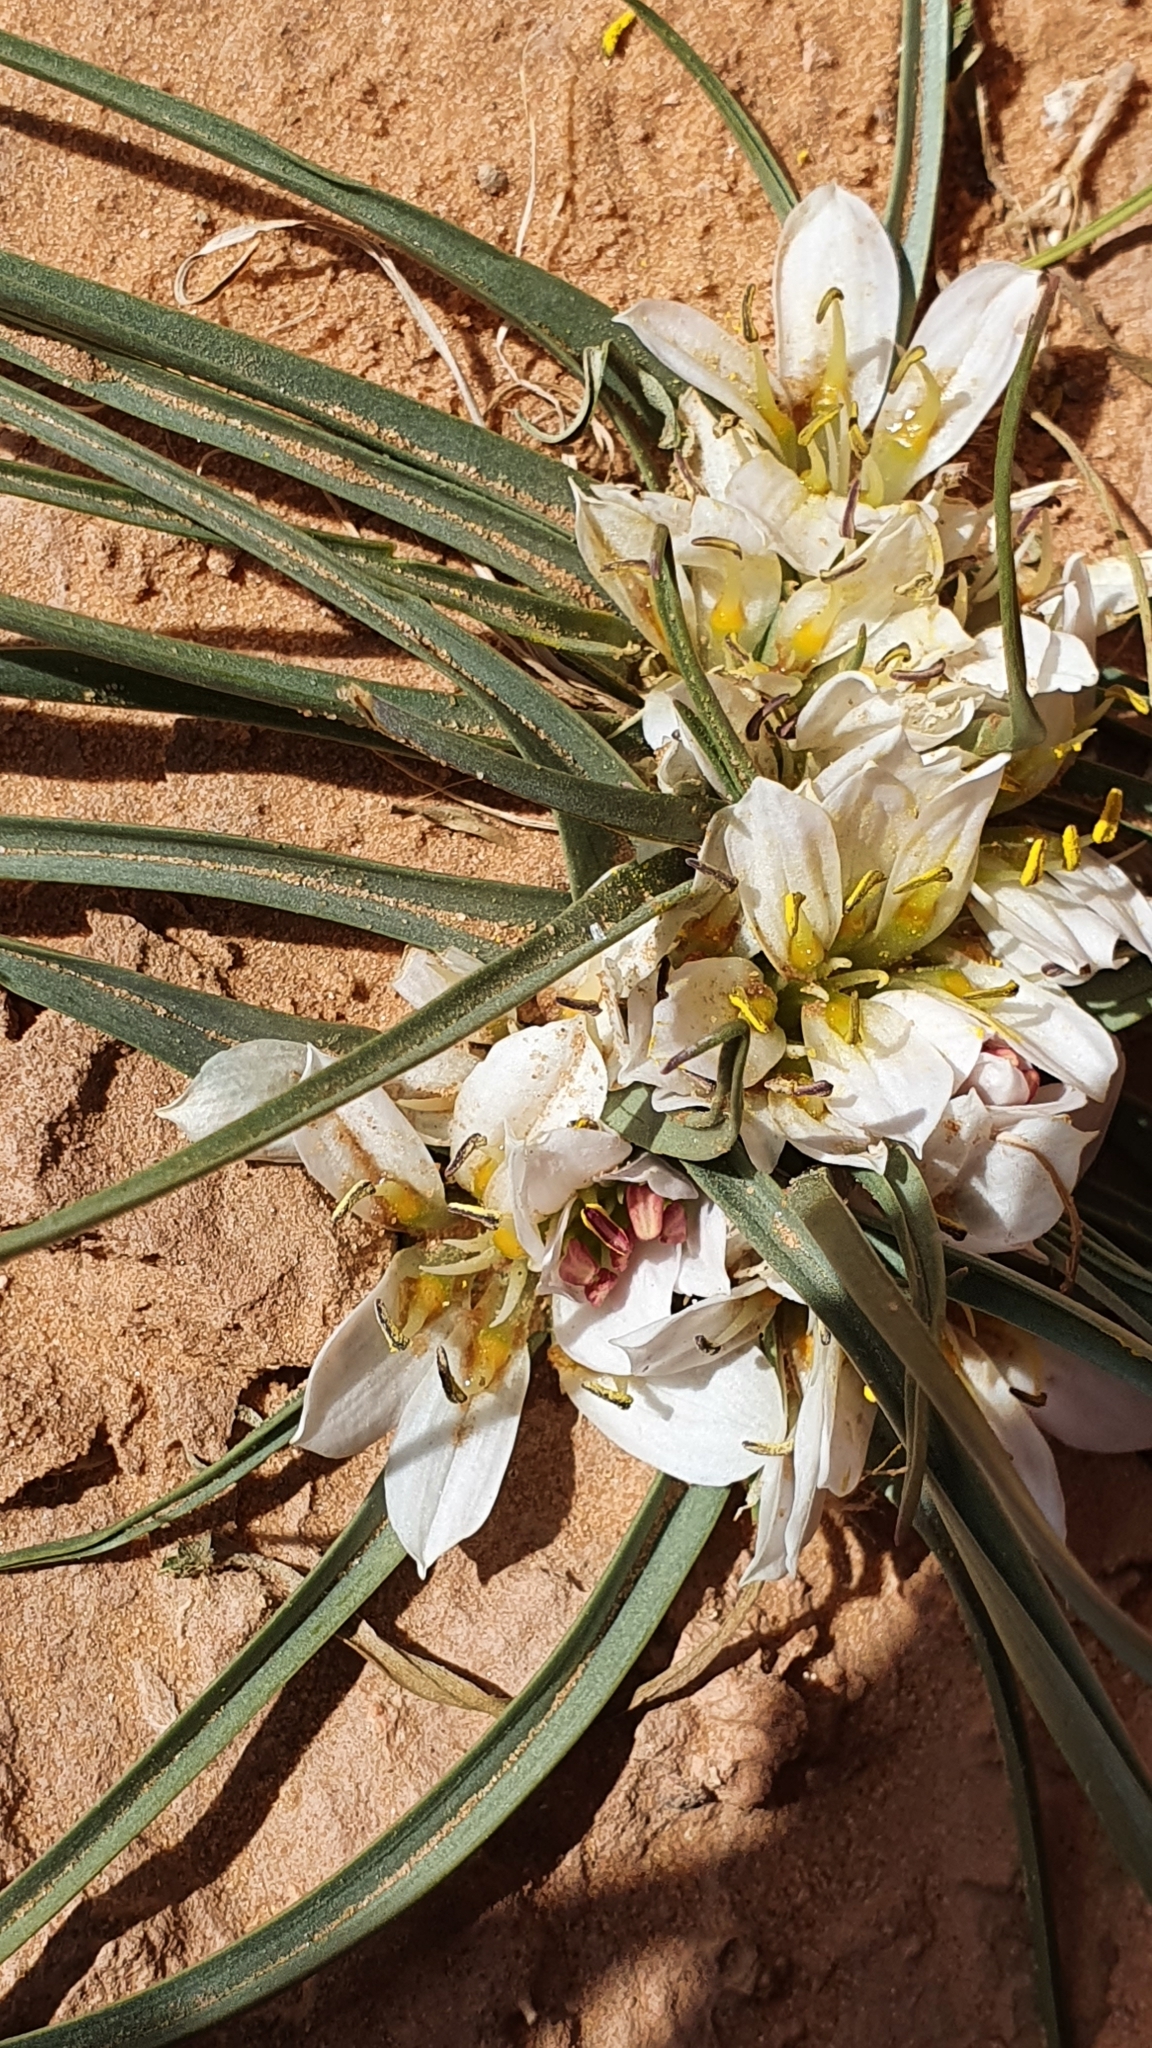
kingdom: Plantae
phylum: Tracheophyta
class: Liliopsida
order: Liliales
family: Colchicaceae
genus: Colchicum
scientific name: Colchicum gramineum
